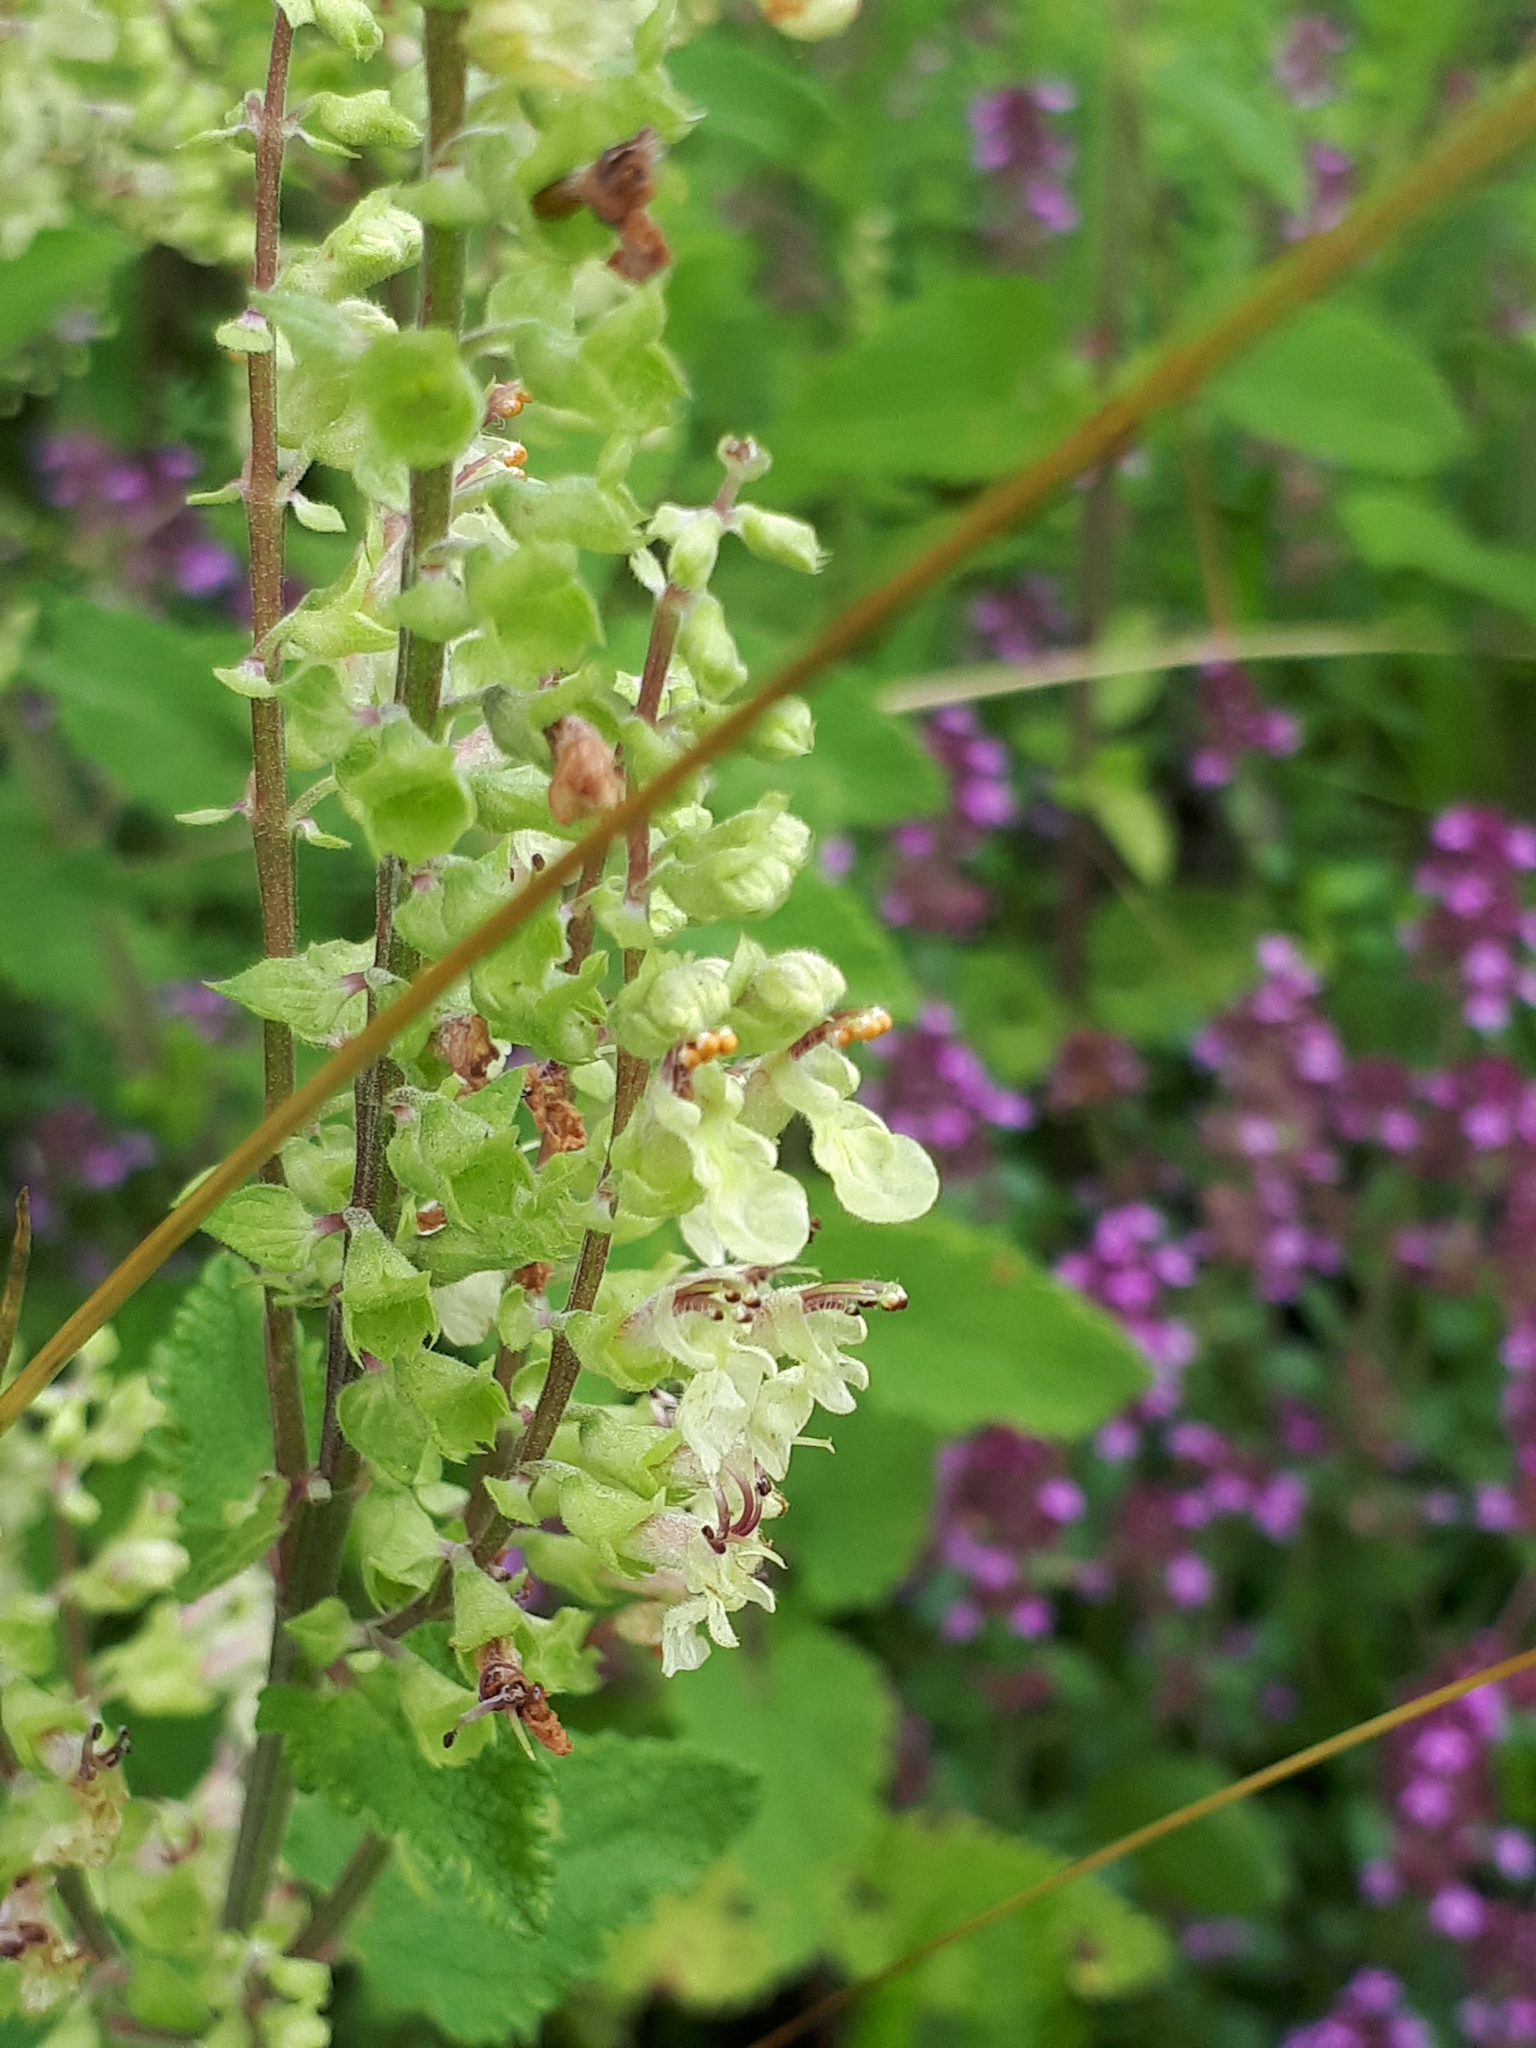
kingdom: Plantae
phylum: Tracheophyta
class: Magnoliopsida
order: Lamiales
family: Lamiaceae
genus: Teucrium
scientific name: Teucrium scorodonia
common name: Woodland germander
